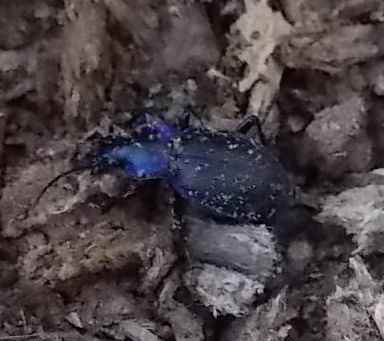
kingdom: Animalia
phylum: Arthropoda
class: Insecta
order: Coleoptera
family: Carabidae
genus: Carabus
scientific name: Carabus problematicus
